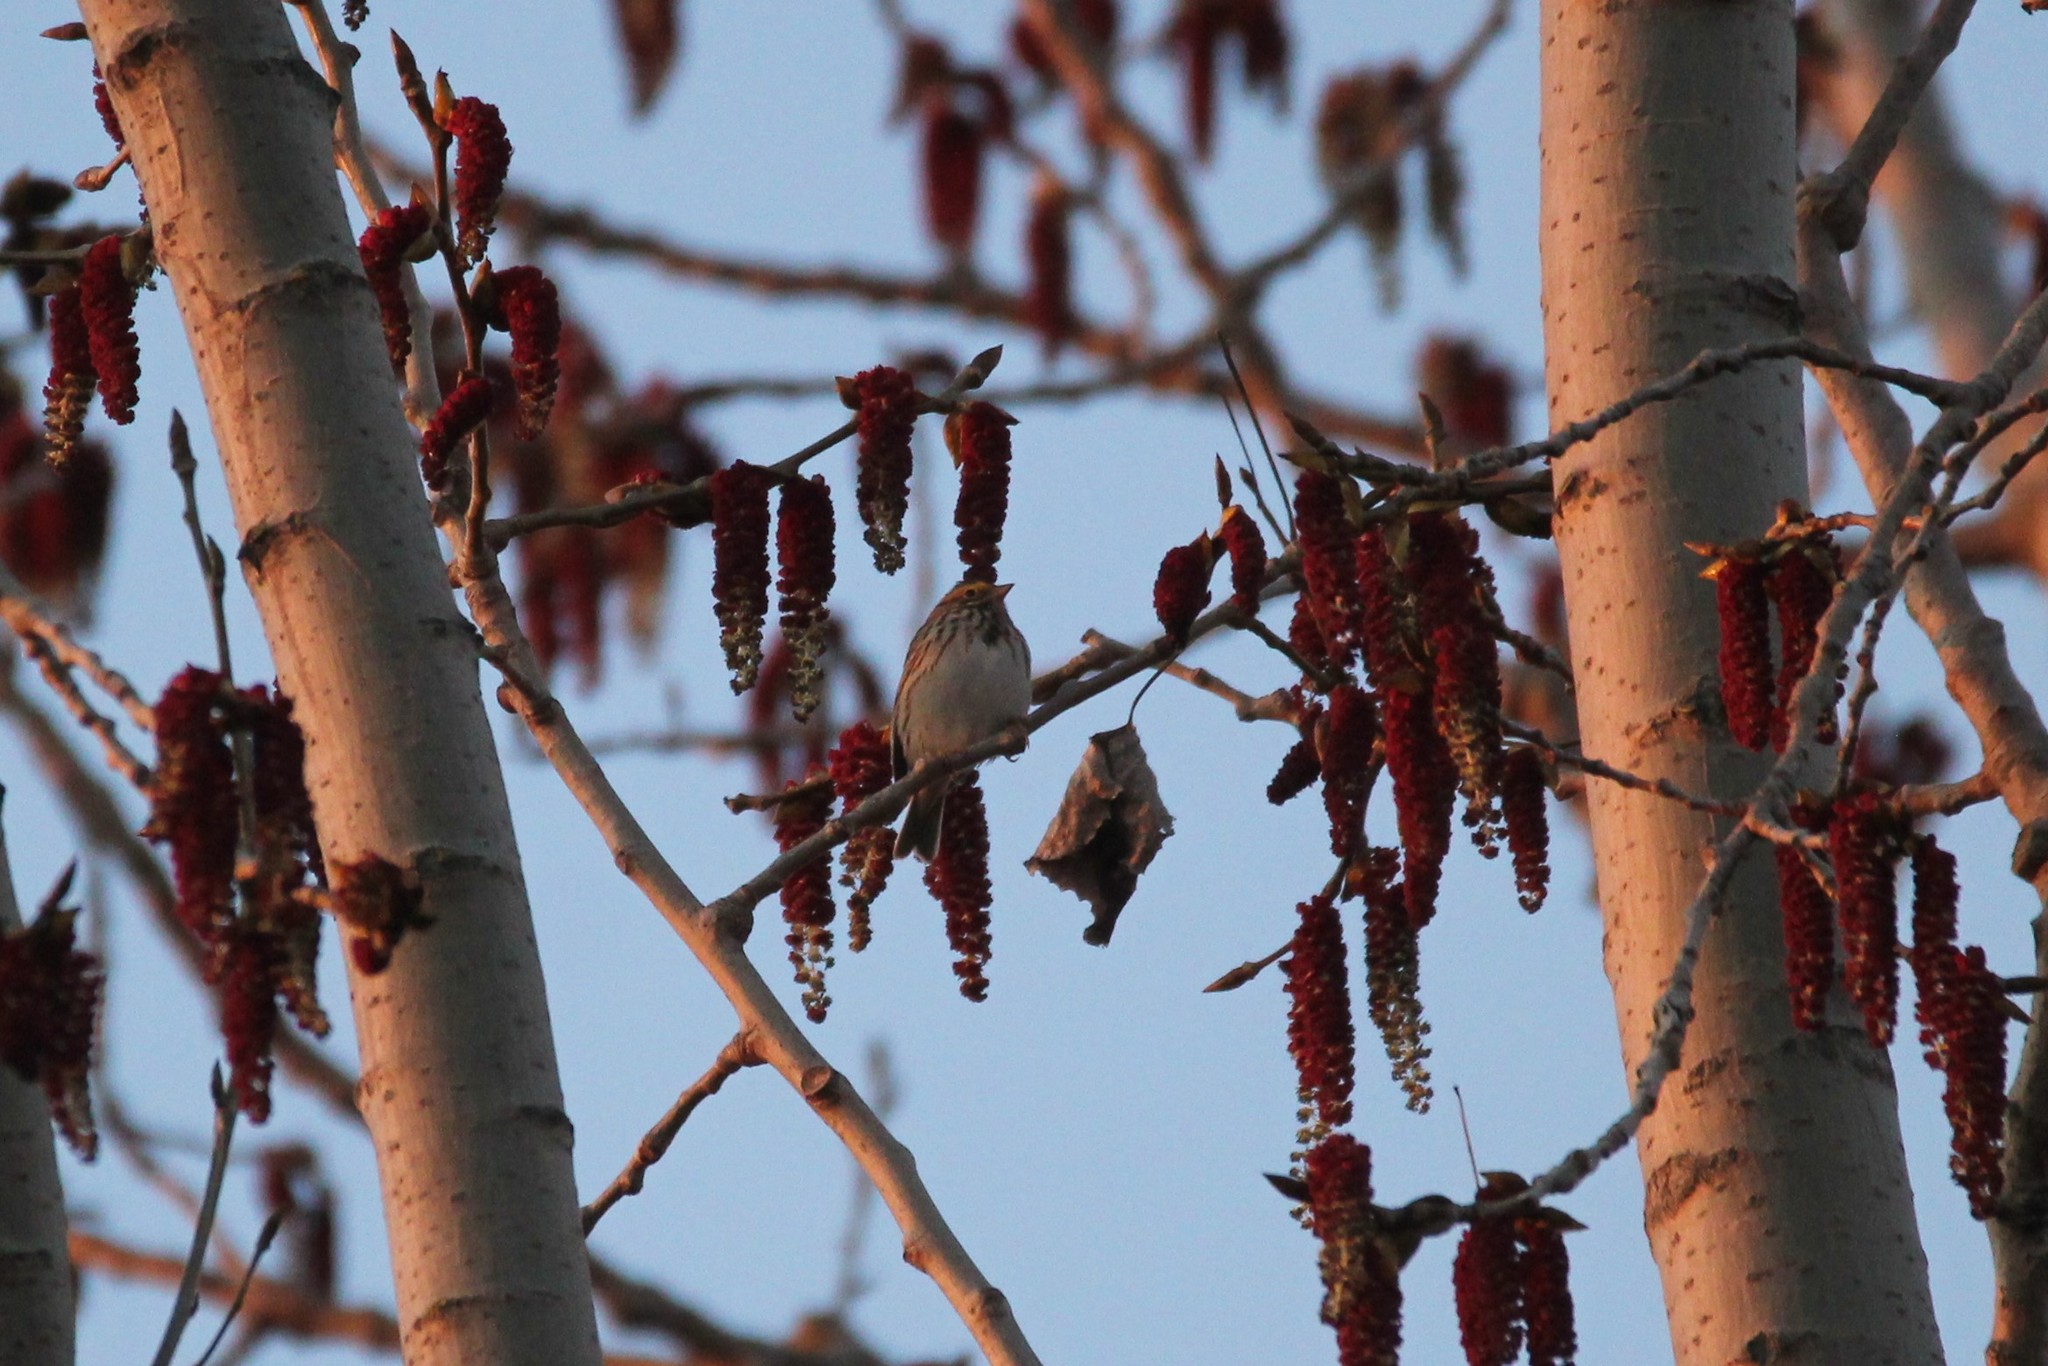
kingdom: Animalia
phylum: Chordata
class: Aves
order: Passeriformes
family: Passerellidae
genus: Passerculus
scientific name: Passerculus sandwichensis
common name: Savannah sparrow
